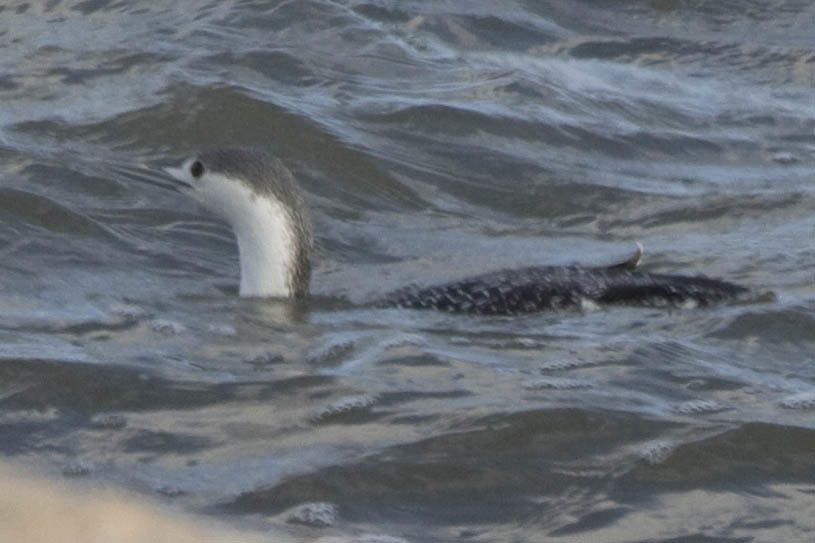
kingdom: Animalia
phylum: Chordata
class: Aves
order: Gaviiformes
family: Gaviidae
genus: Gavia
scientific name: Gavia stellata
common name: Red-throated loon
